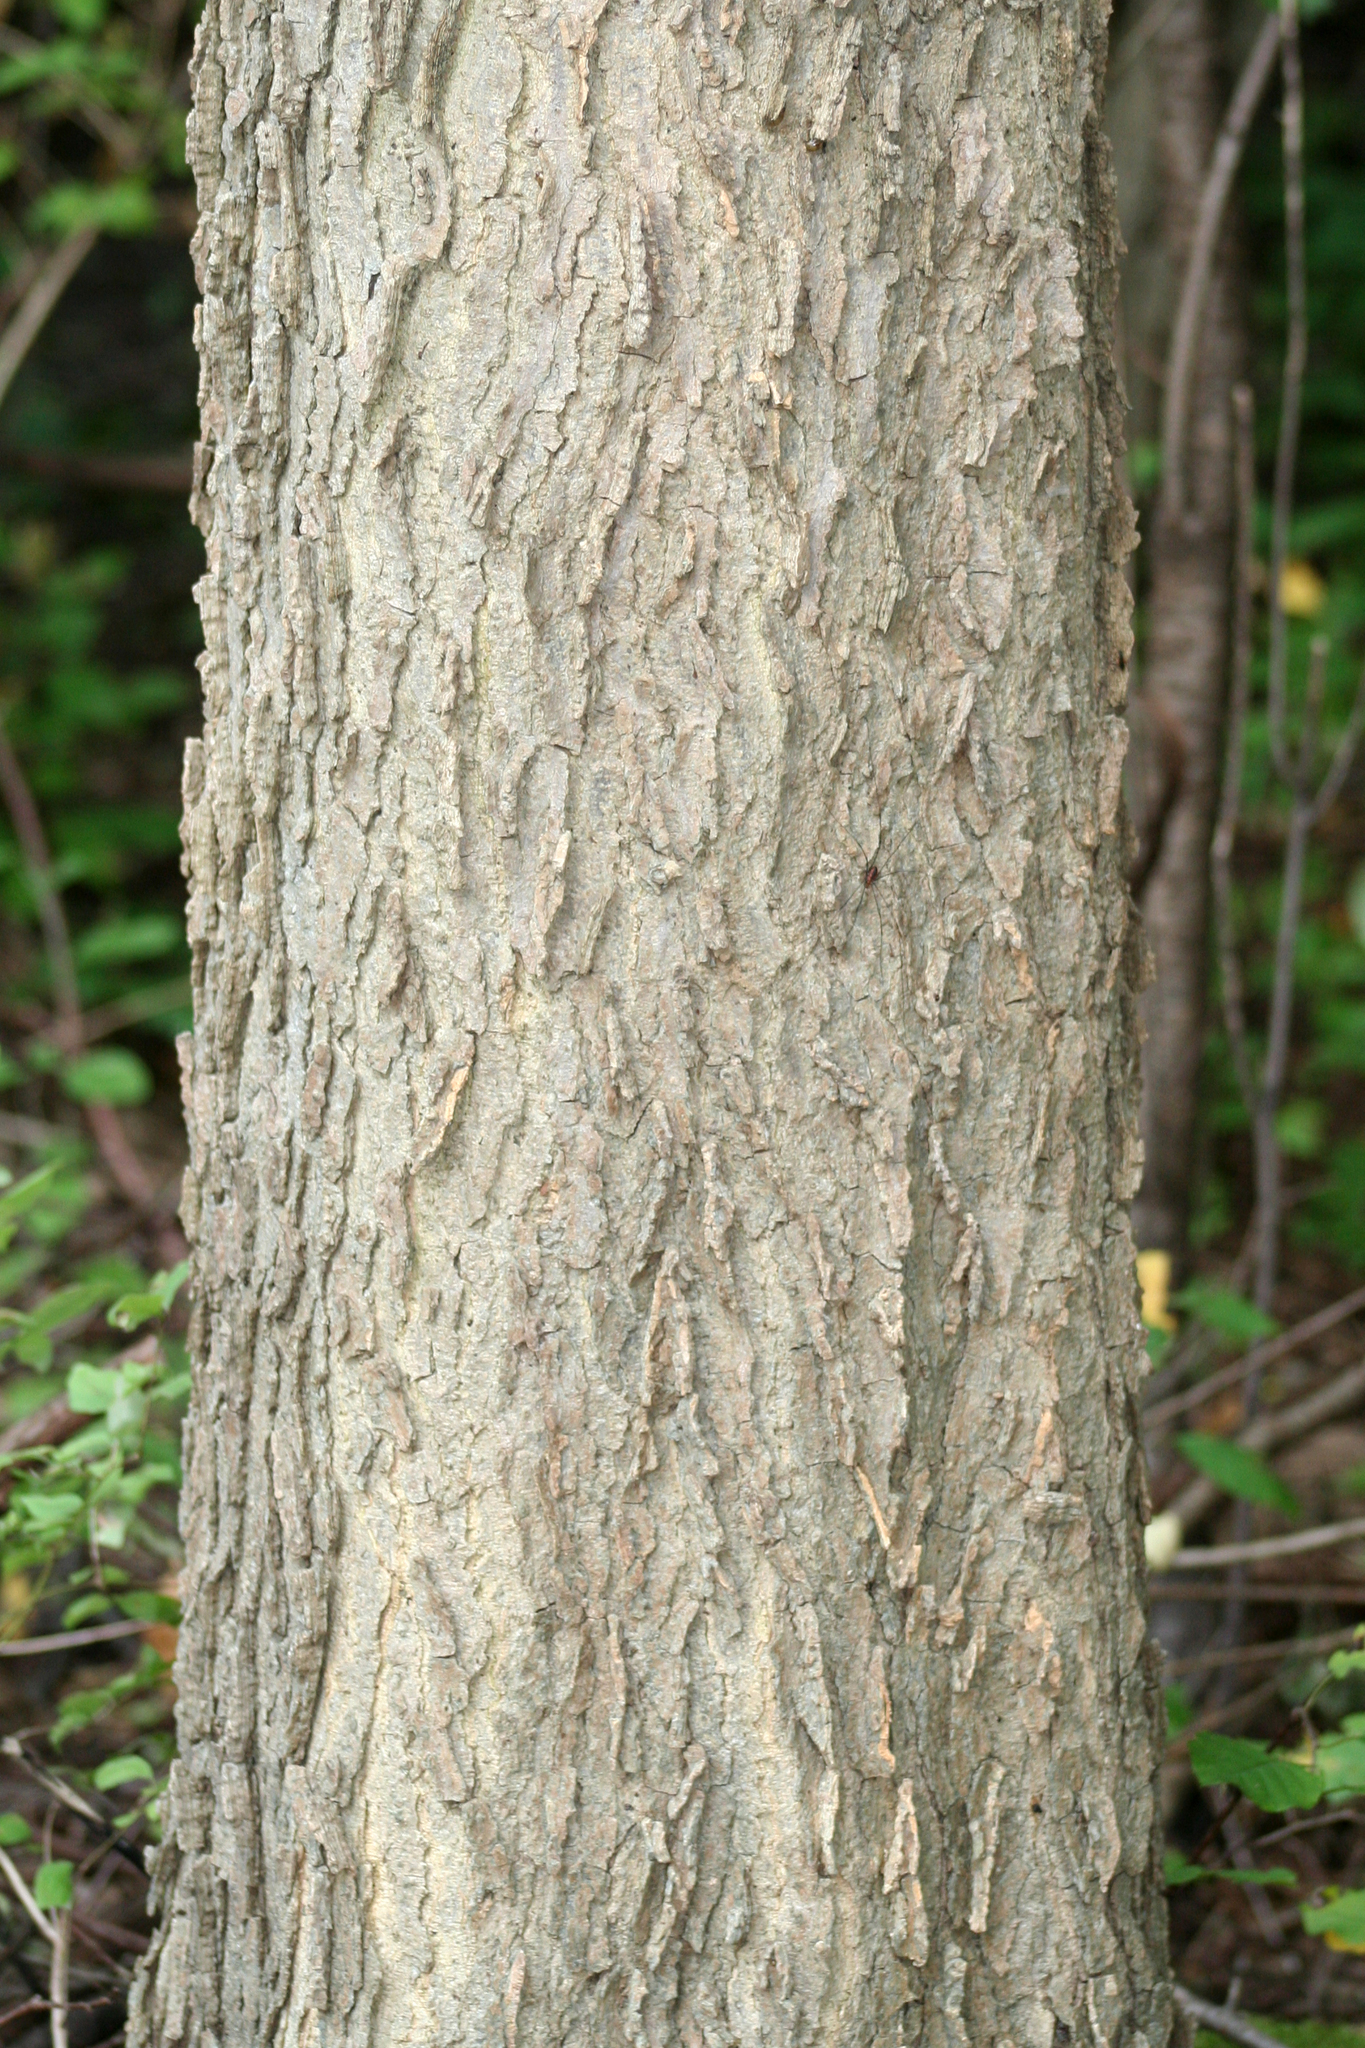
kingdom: Plantae
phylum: Tracheophyta
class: Magnoliopsida
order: Rosales
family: Cannabaceae
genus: Celtis
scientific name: Celtis occidentalis
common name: Common hackberry
